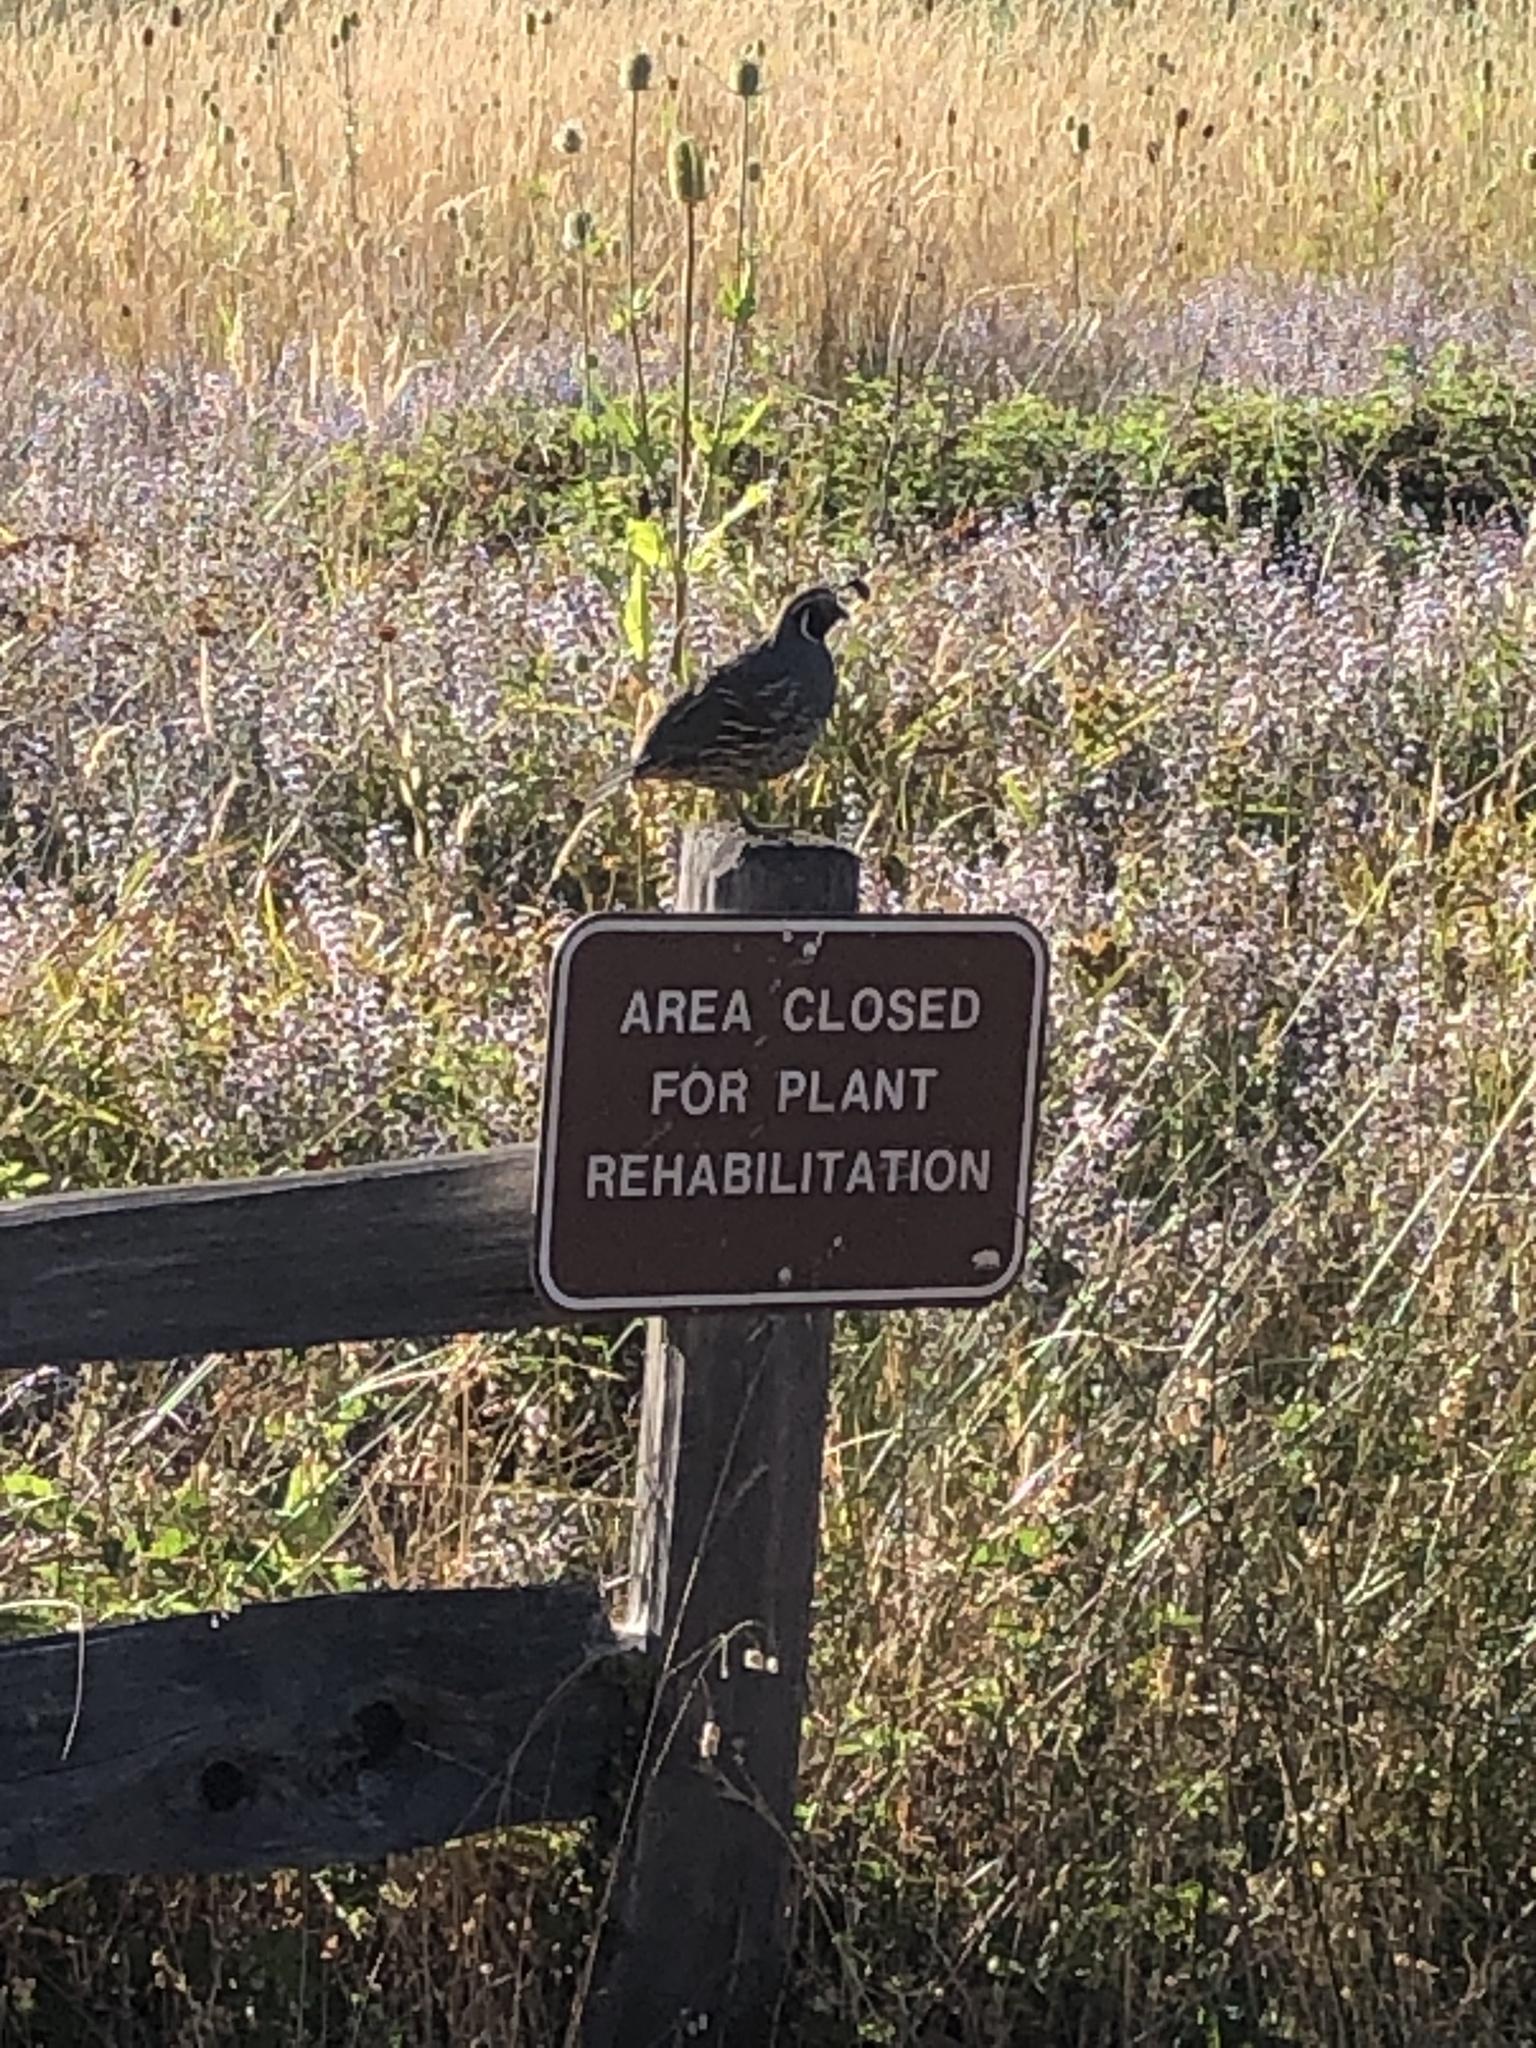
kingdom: Animalia
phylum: Chordata
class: Aves
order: Galliformes
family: Odontophoridae
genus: Callipepla
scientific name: Callipepla californica
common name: California quail
